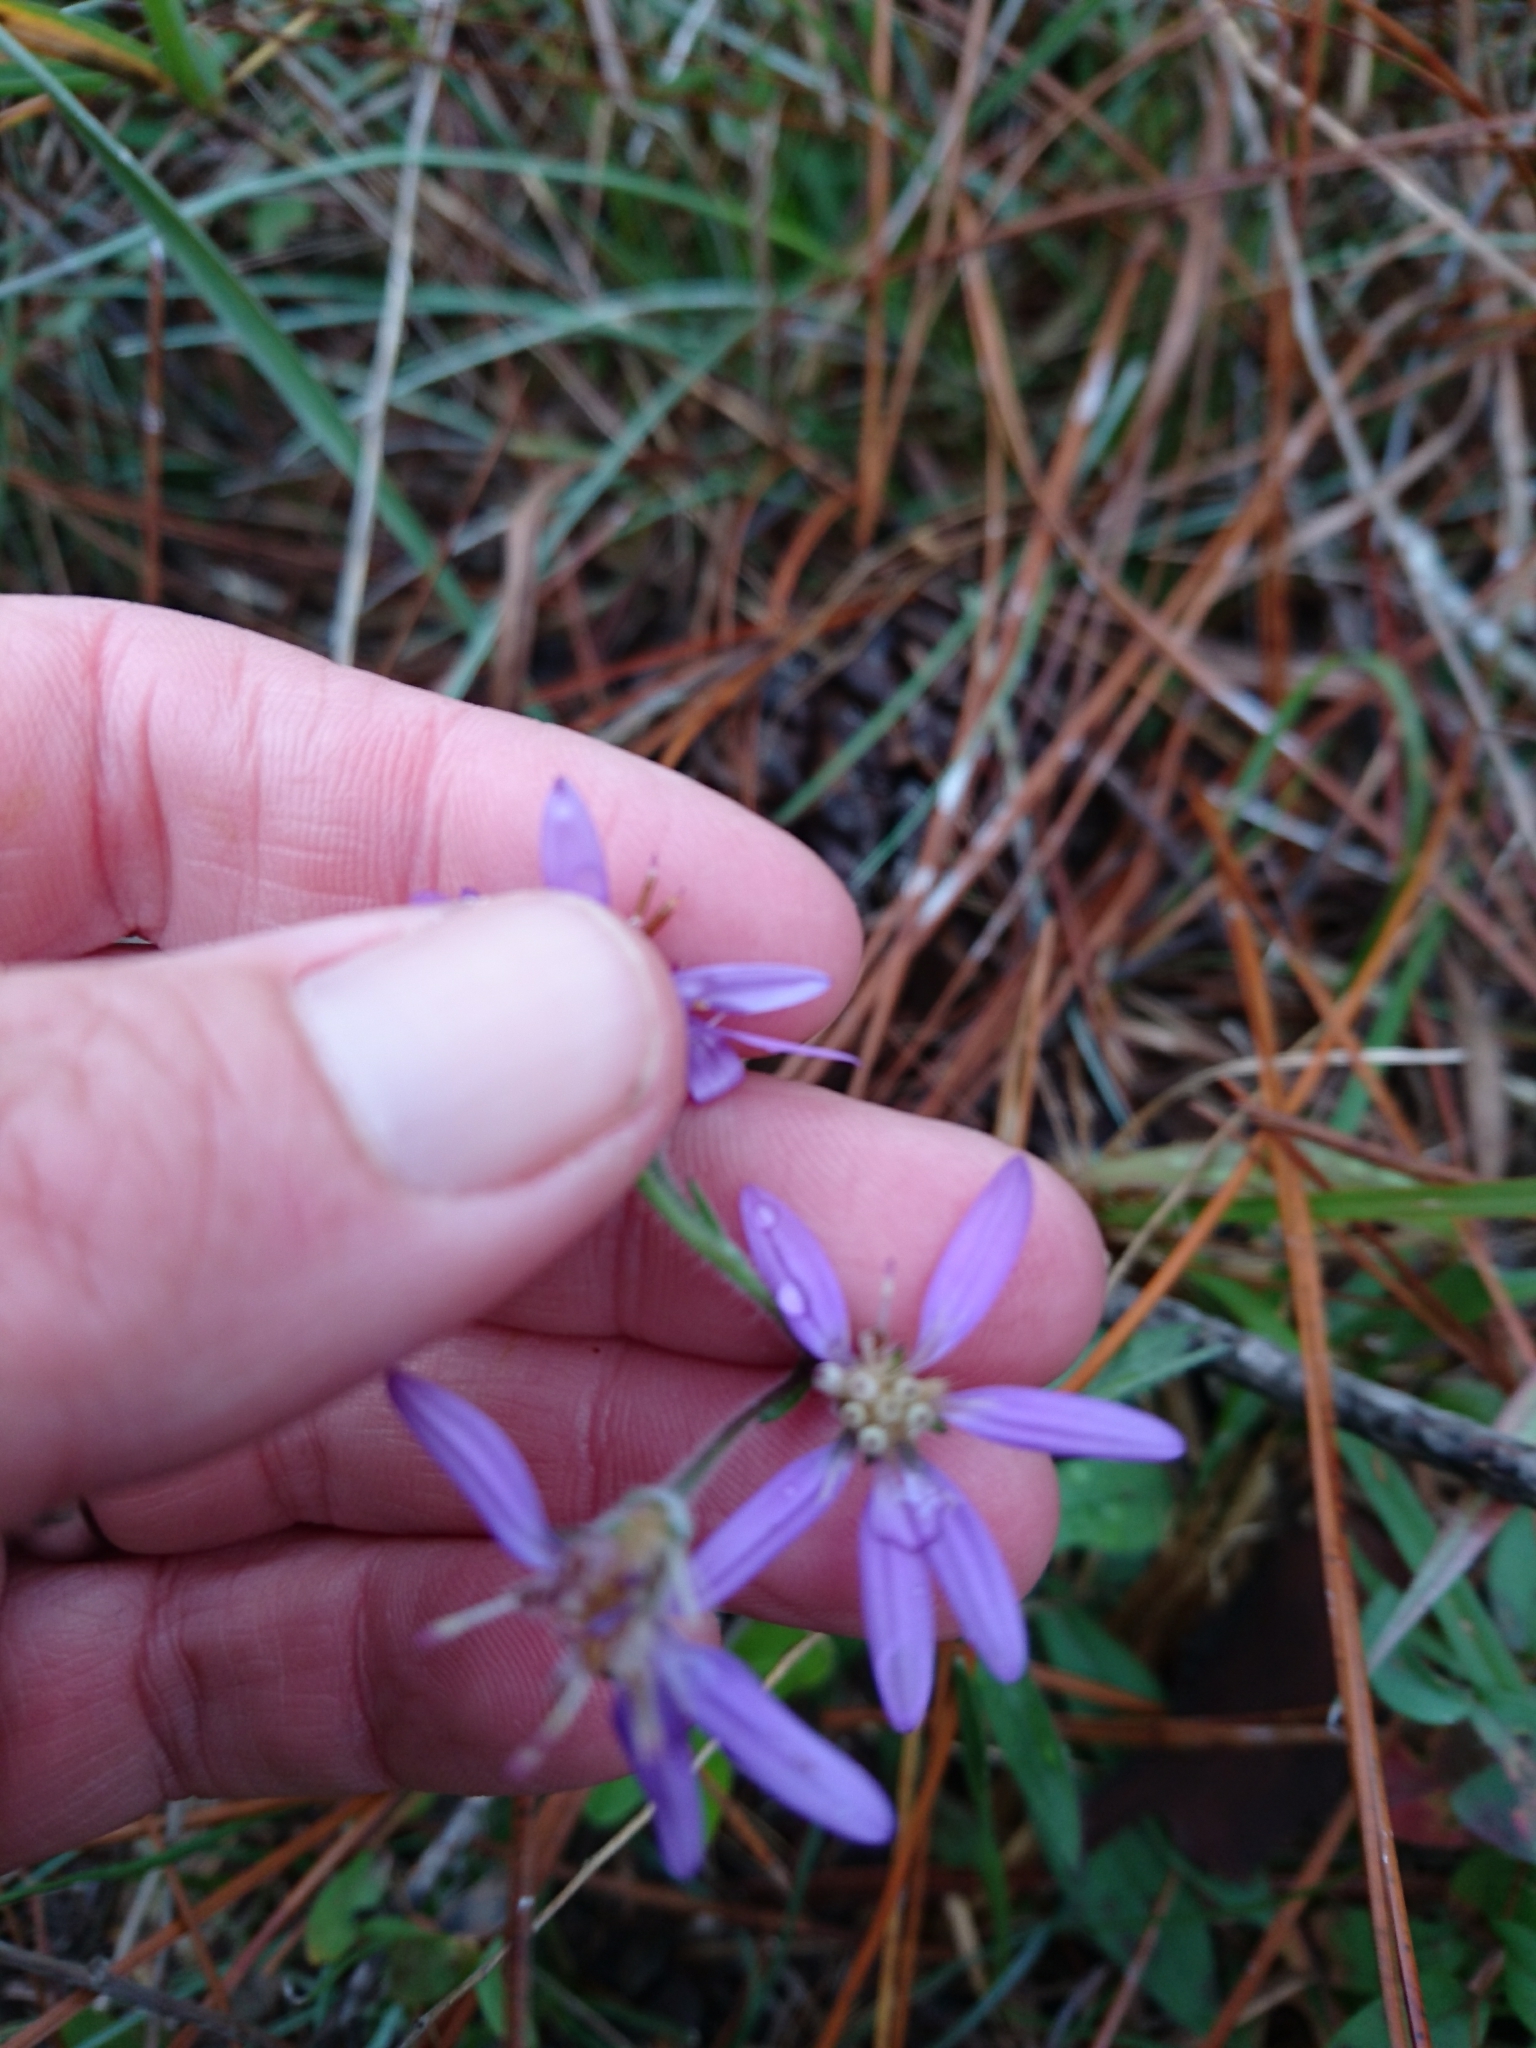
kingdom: Plantae
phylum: Tracheophyta
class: Magnoliopsida
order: Asterales
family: Asteraceae
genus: Symphyotrichum
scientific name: Symphyotrichum concolor
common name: Eastern silver aster
